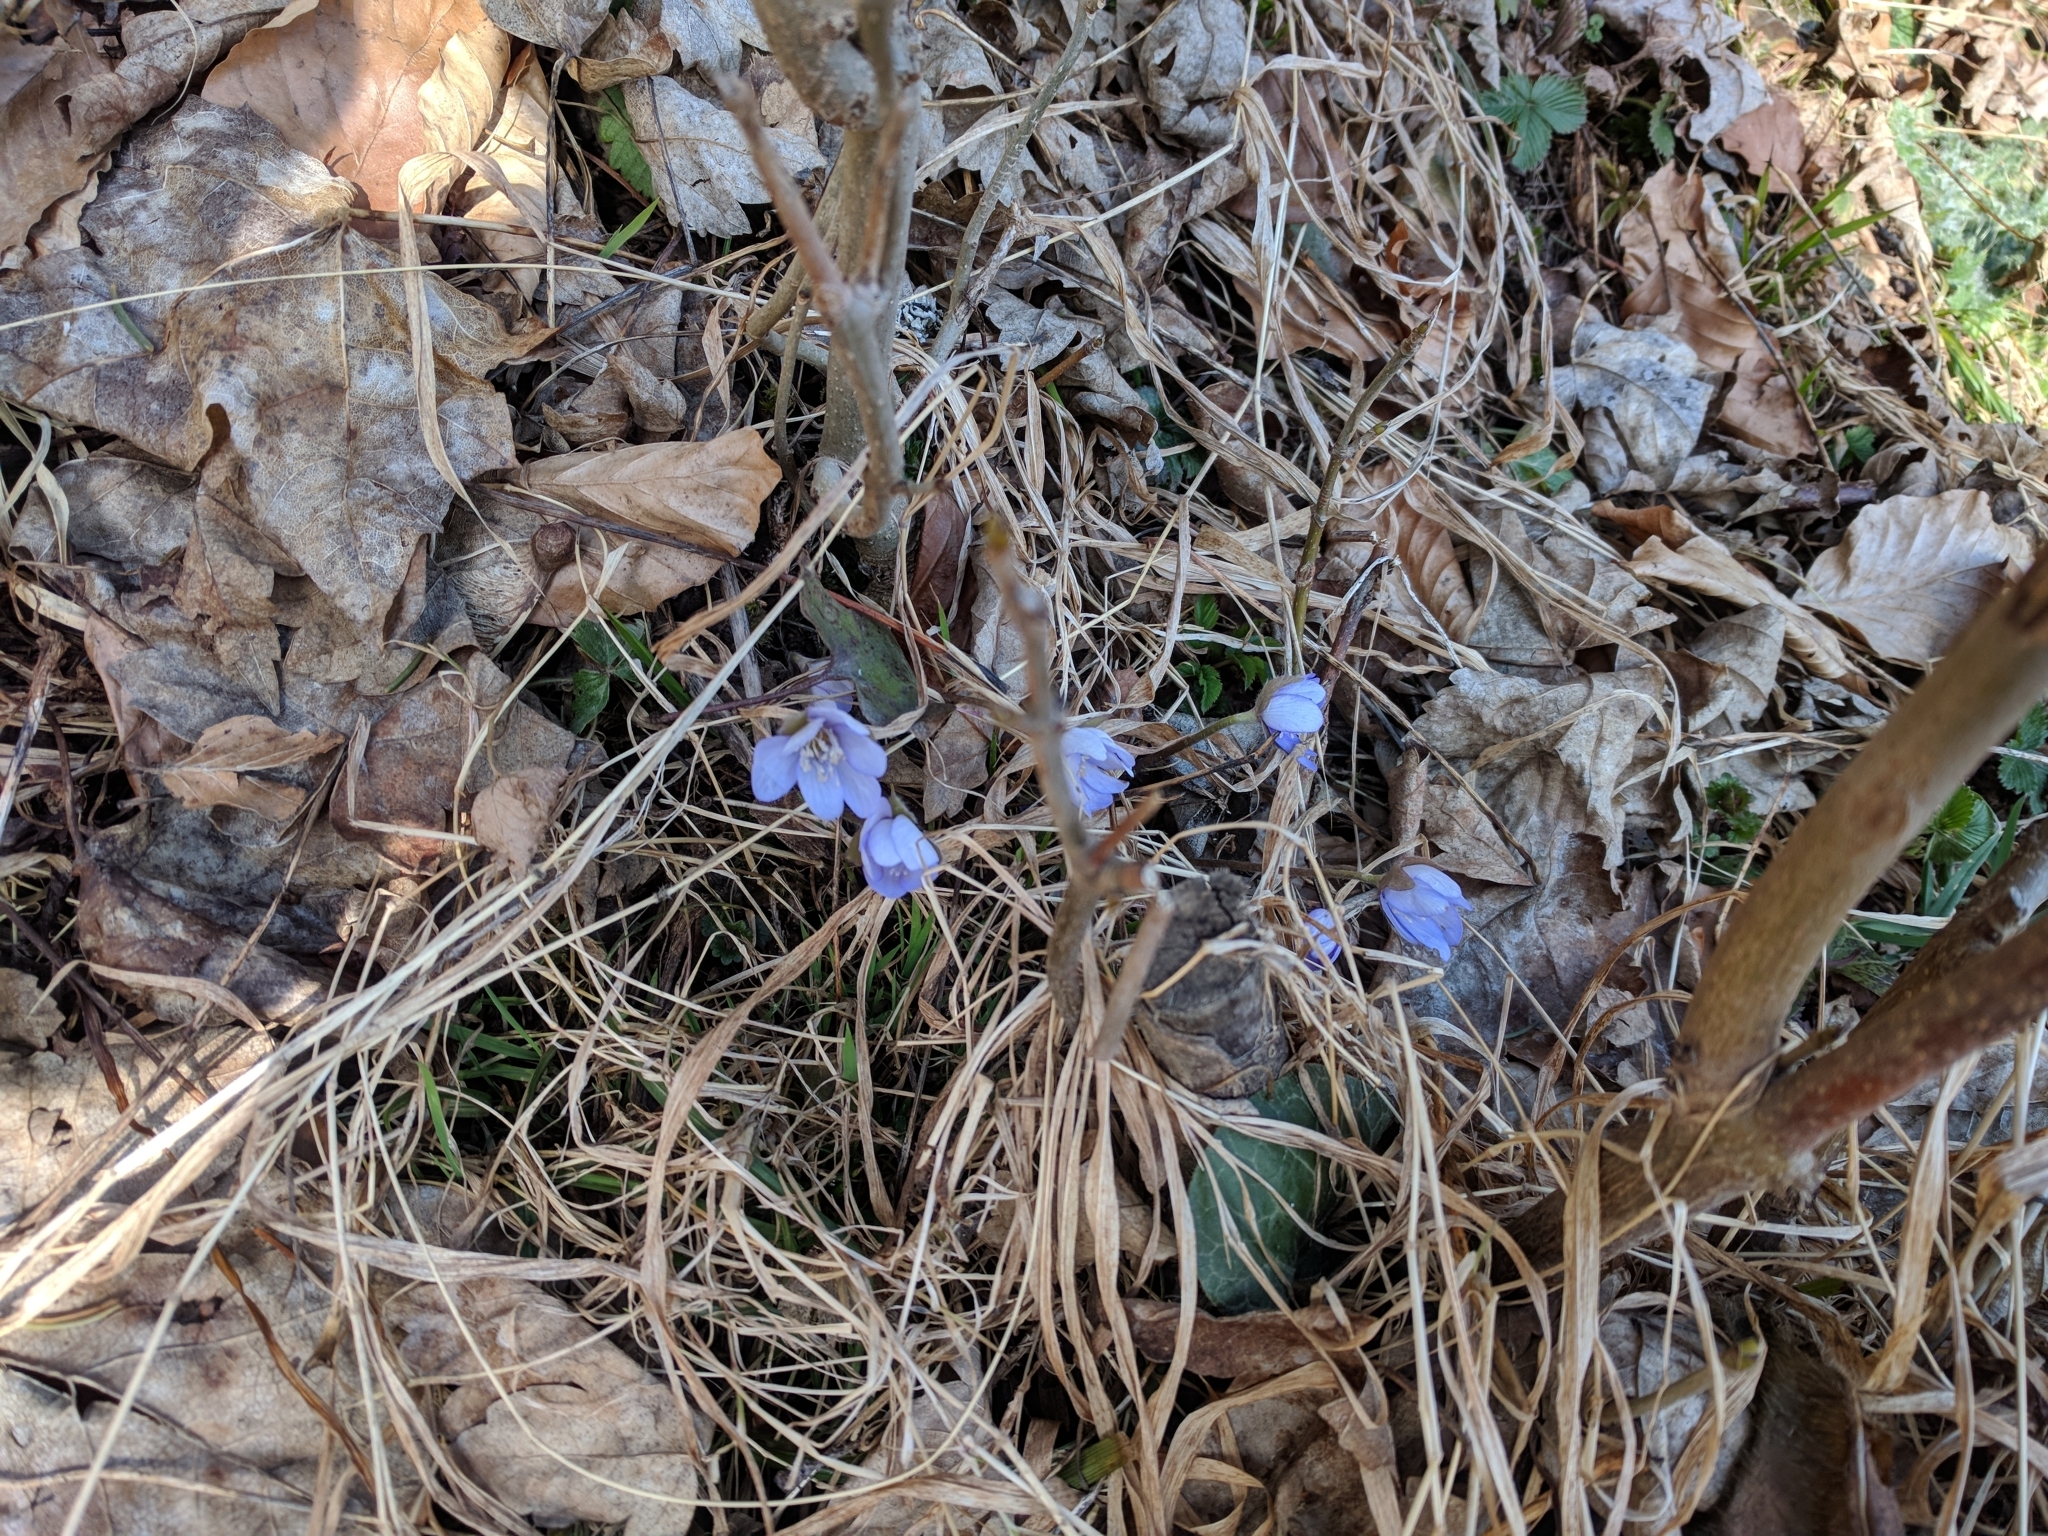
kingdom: Plantae
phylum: Tracheophyta
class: Magnoliopsida
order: Ranunculales
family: Ranunculaceae
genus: Hepatica
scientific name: Hepatica nobilis
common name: Liverleaf
